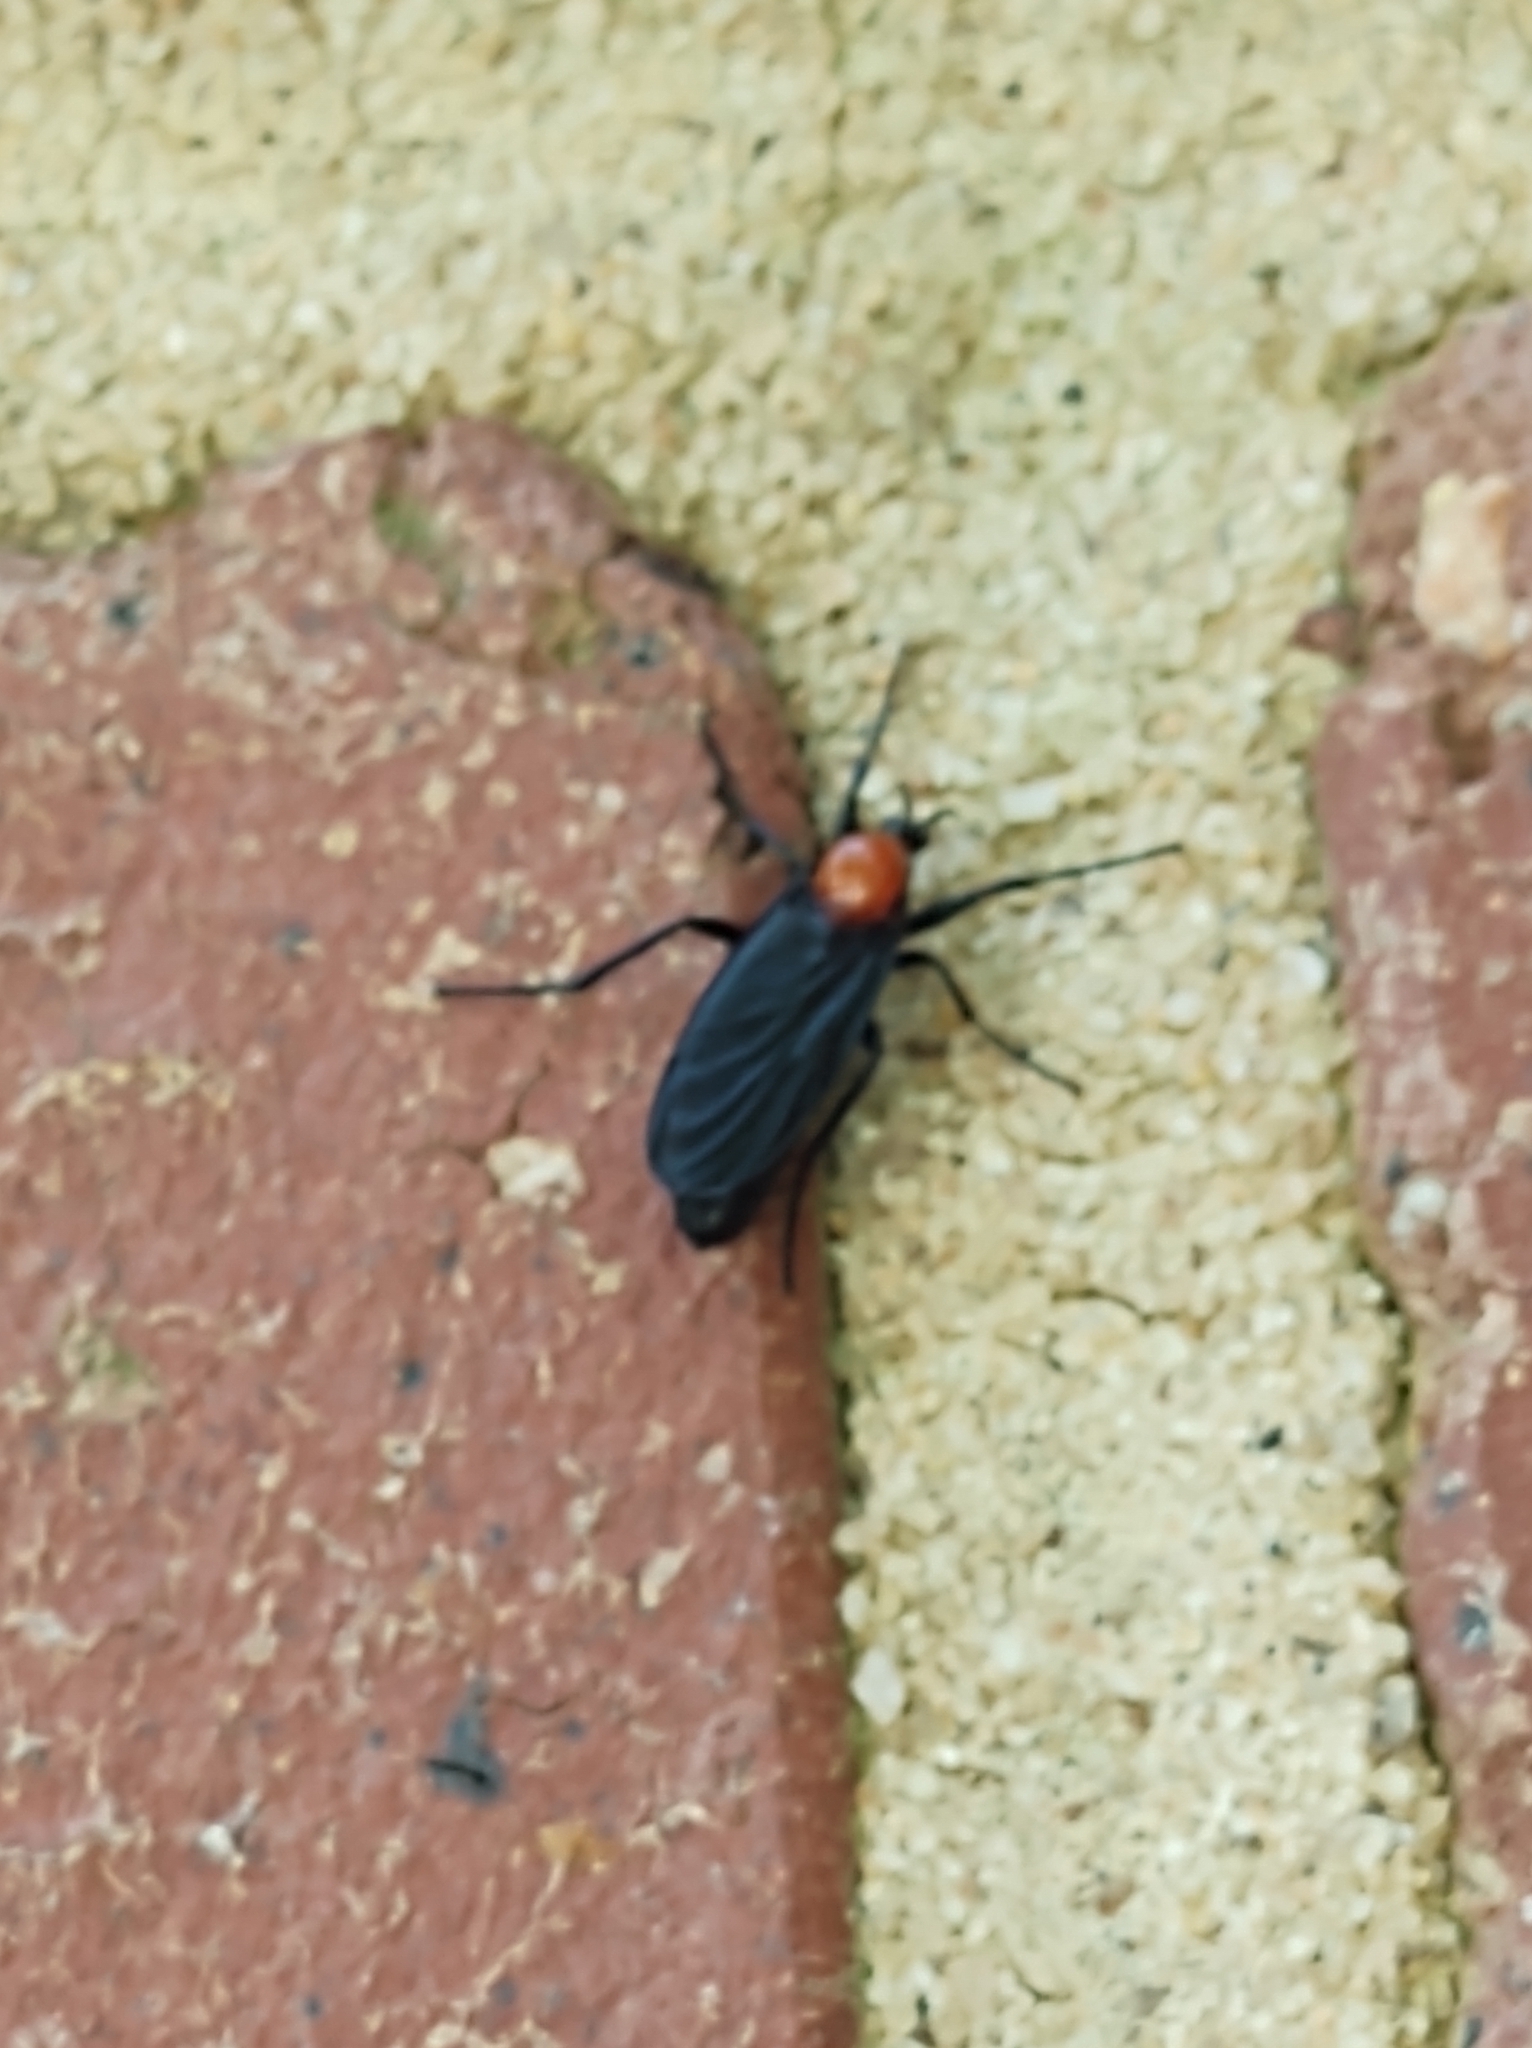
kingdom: Animalia
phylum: Arthropoda
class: Insecta
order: Diptera
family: Bibionidae
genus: Bibio
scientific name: Bibio superfluus
